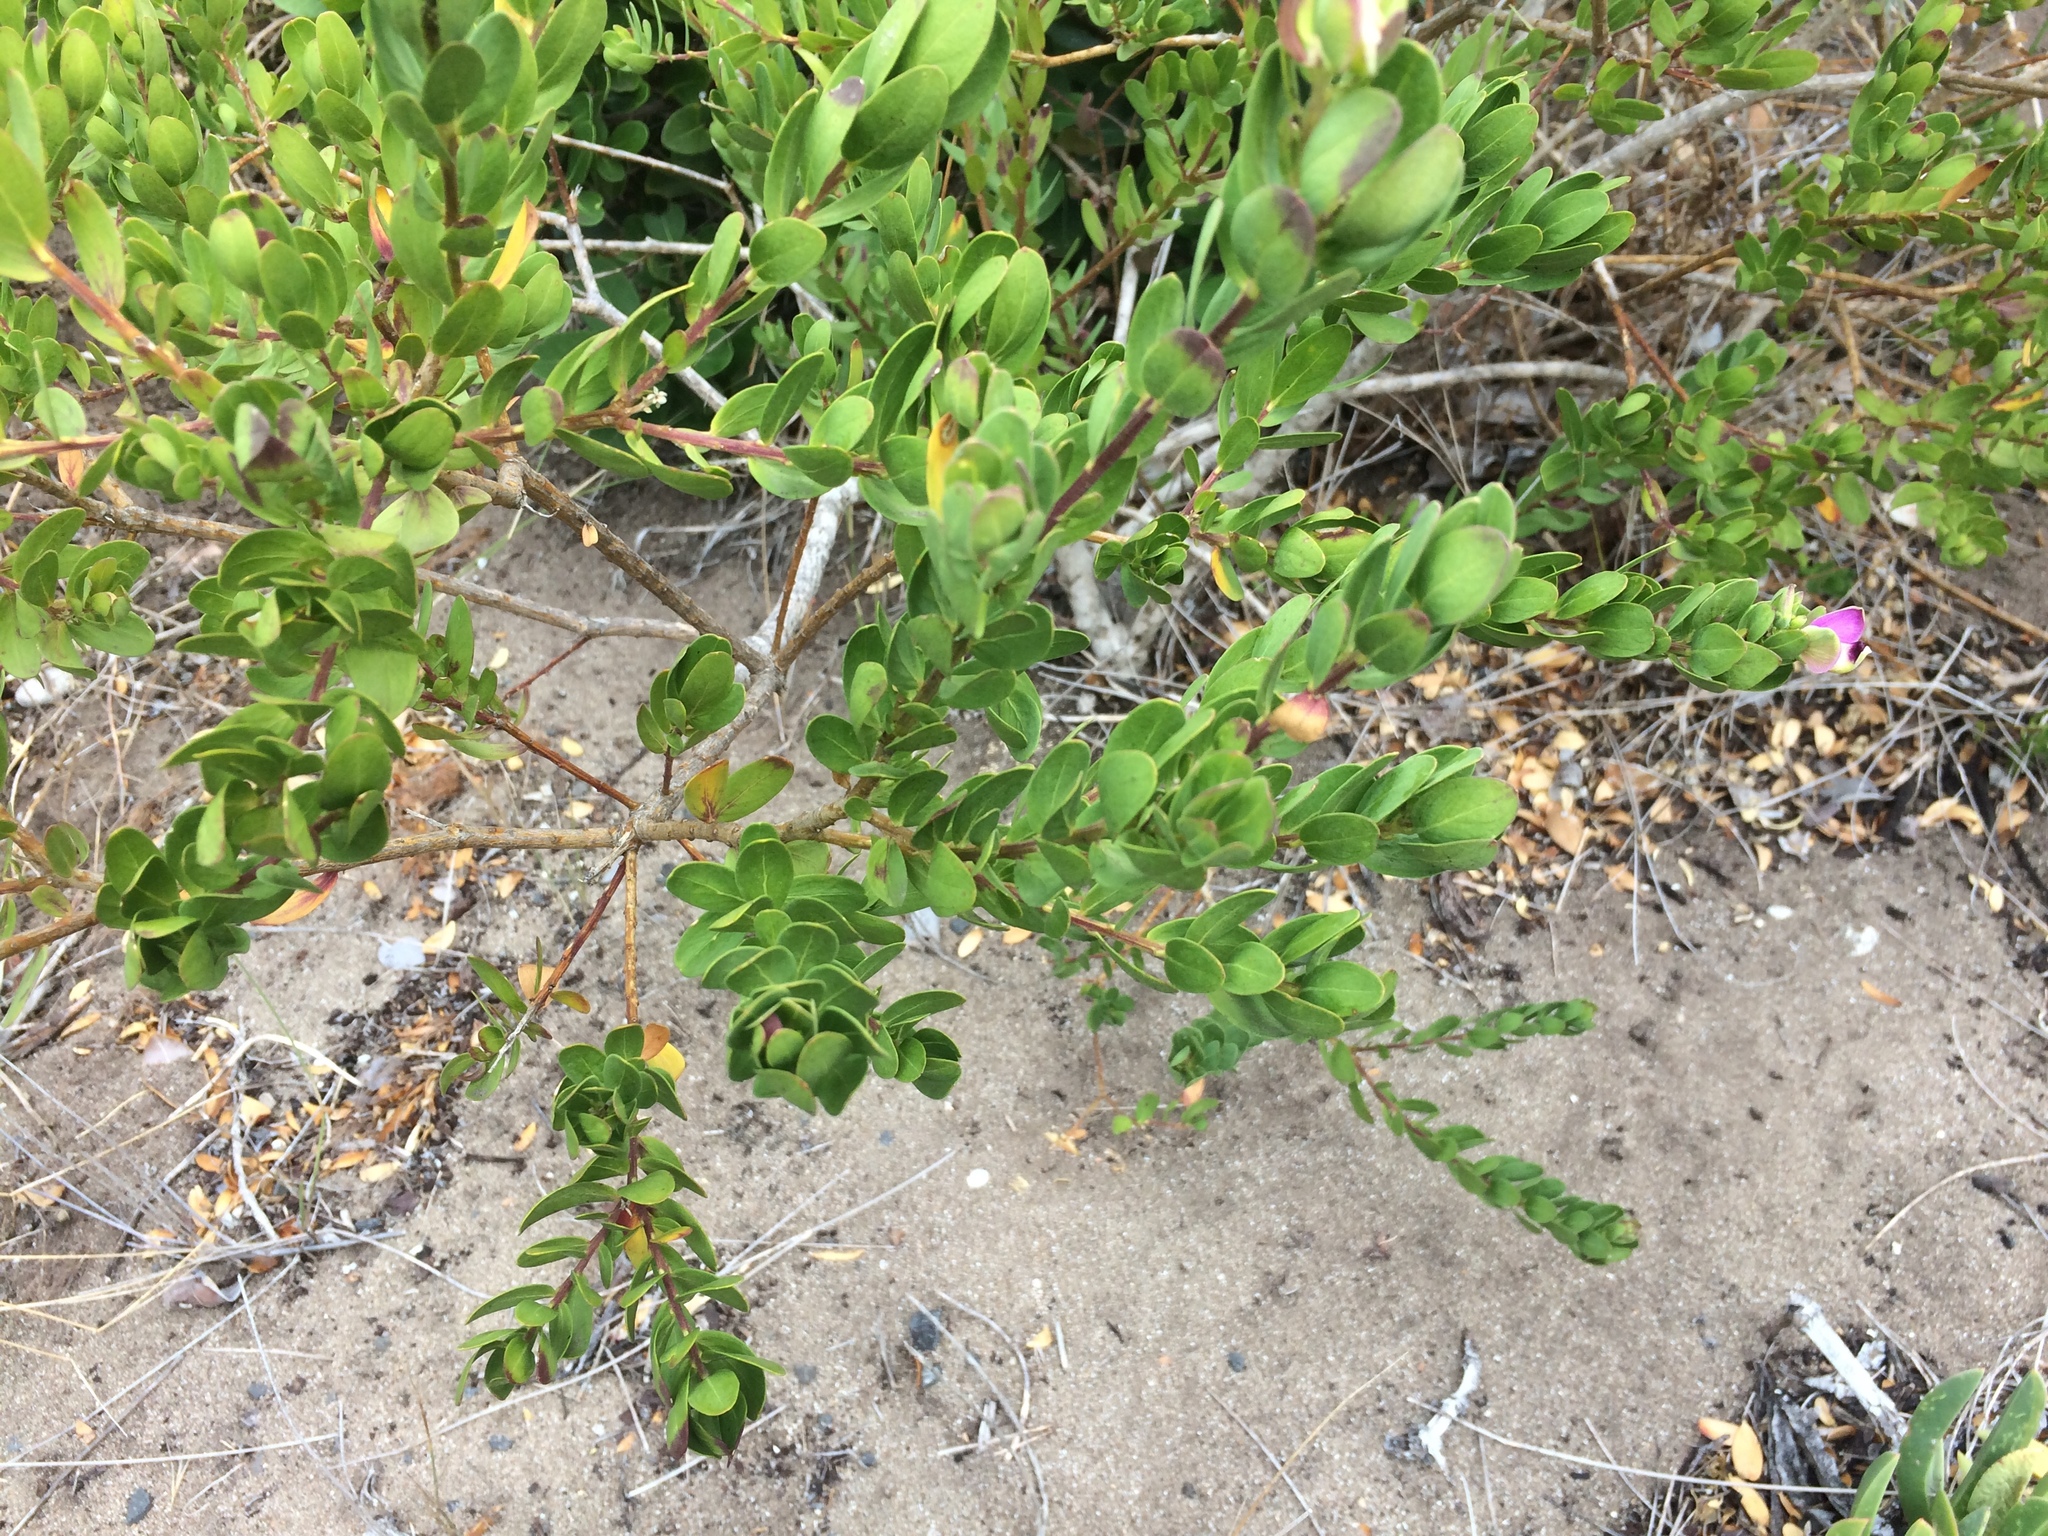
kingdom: Plantae
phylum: Tracheophyta
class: Magnoliopsida
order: Fabales
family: Polygalaceae
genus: Polygala
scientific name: Polygala myrtifolia
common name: Myrtle-leaf milkwort
